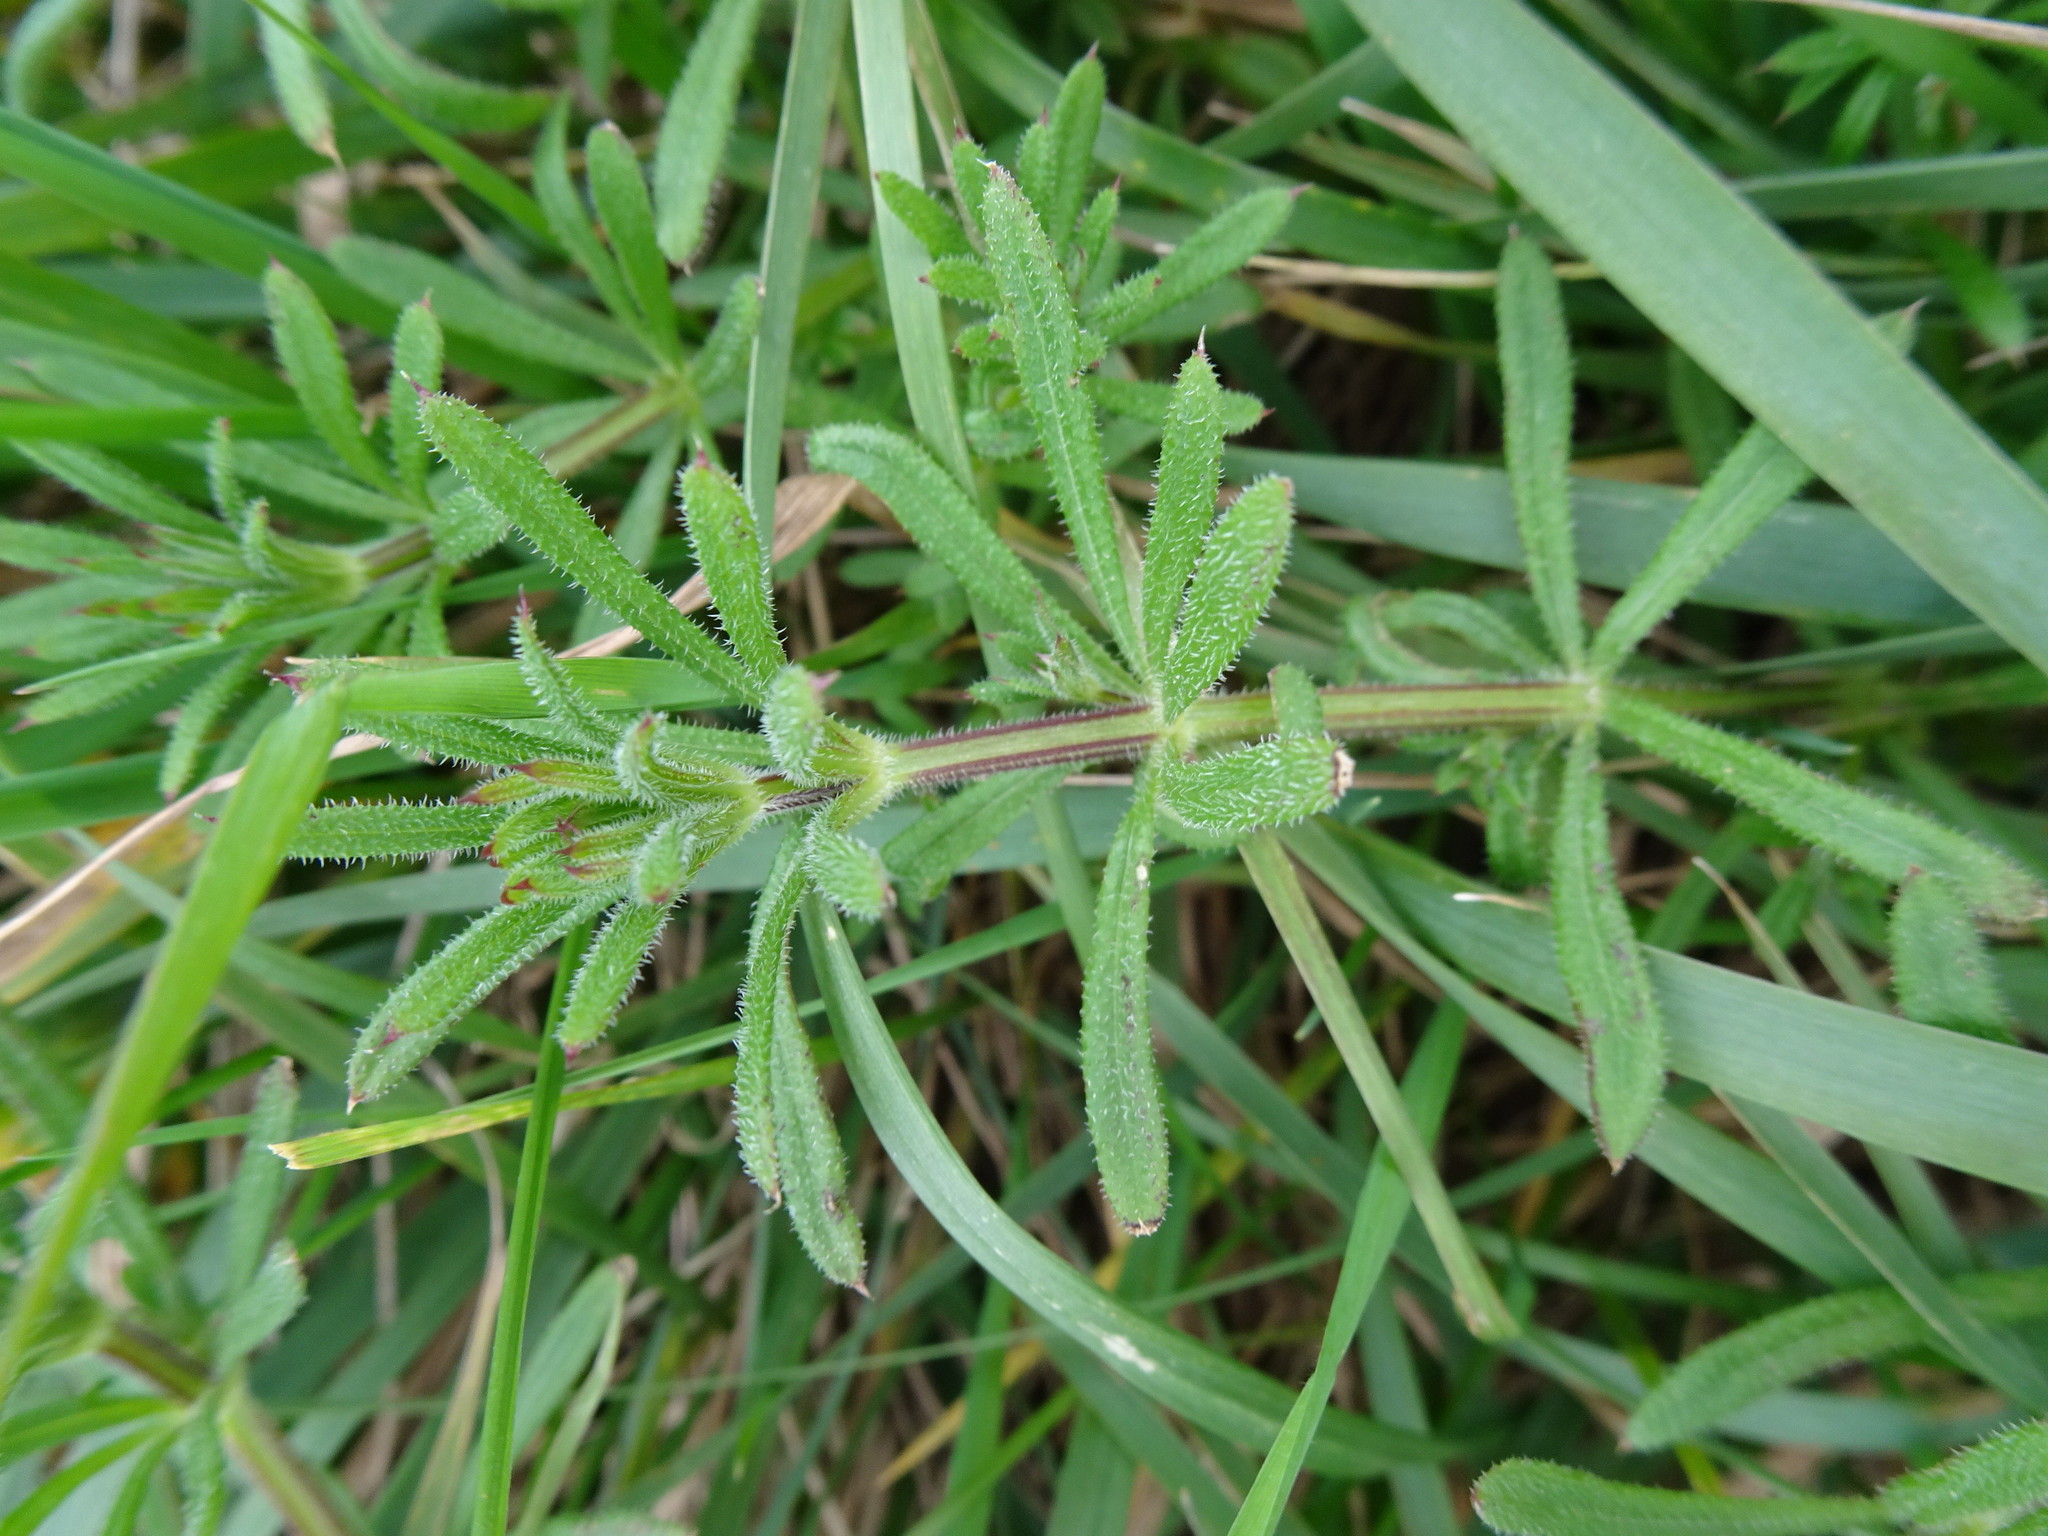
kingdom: Plantae
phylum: Tracheophyta
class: Magnoliopsida
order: Gentianales
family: Rubiaceae
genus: Galium
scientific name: Galium aparine
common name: Cleavers
